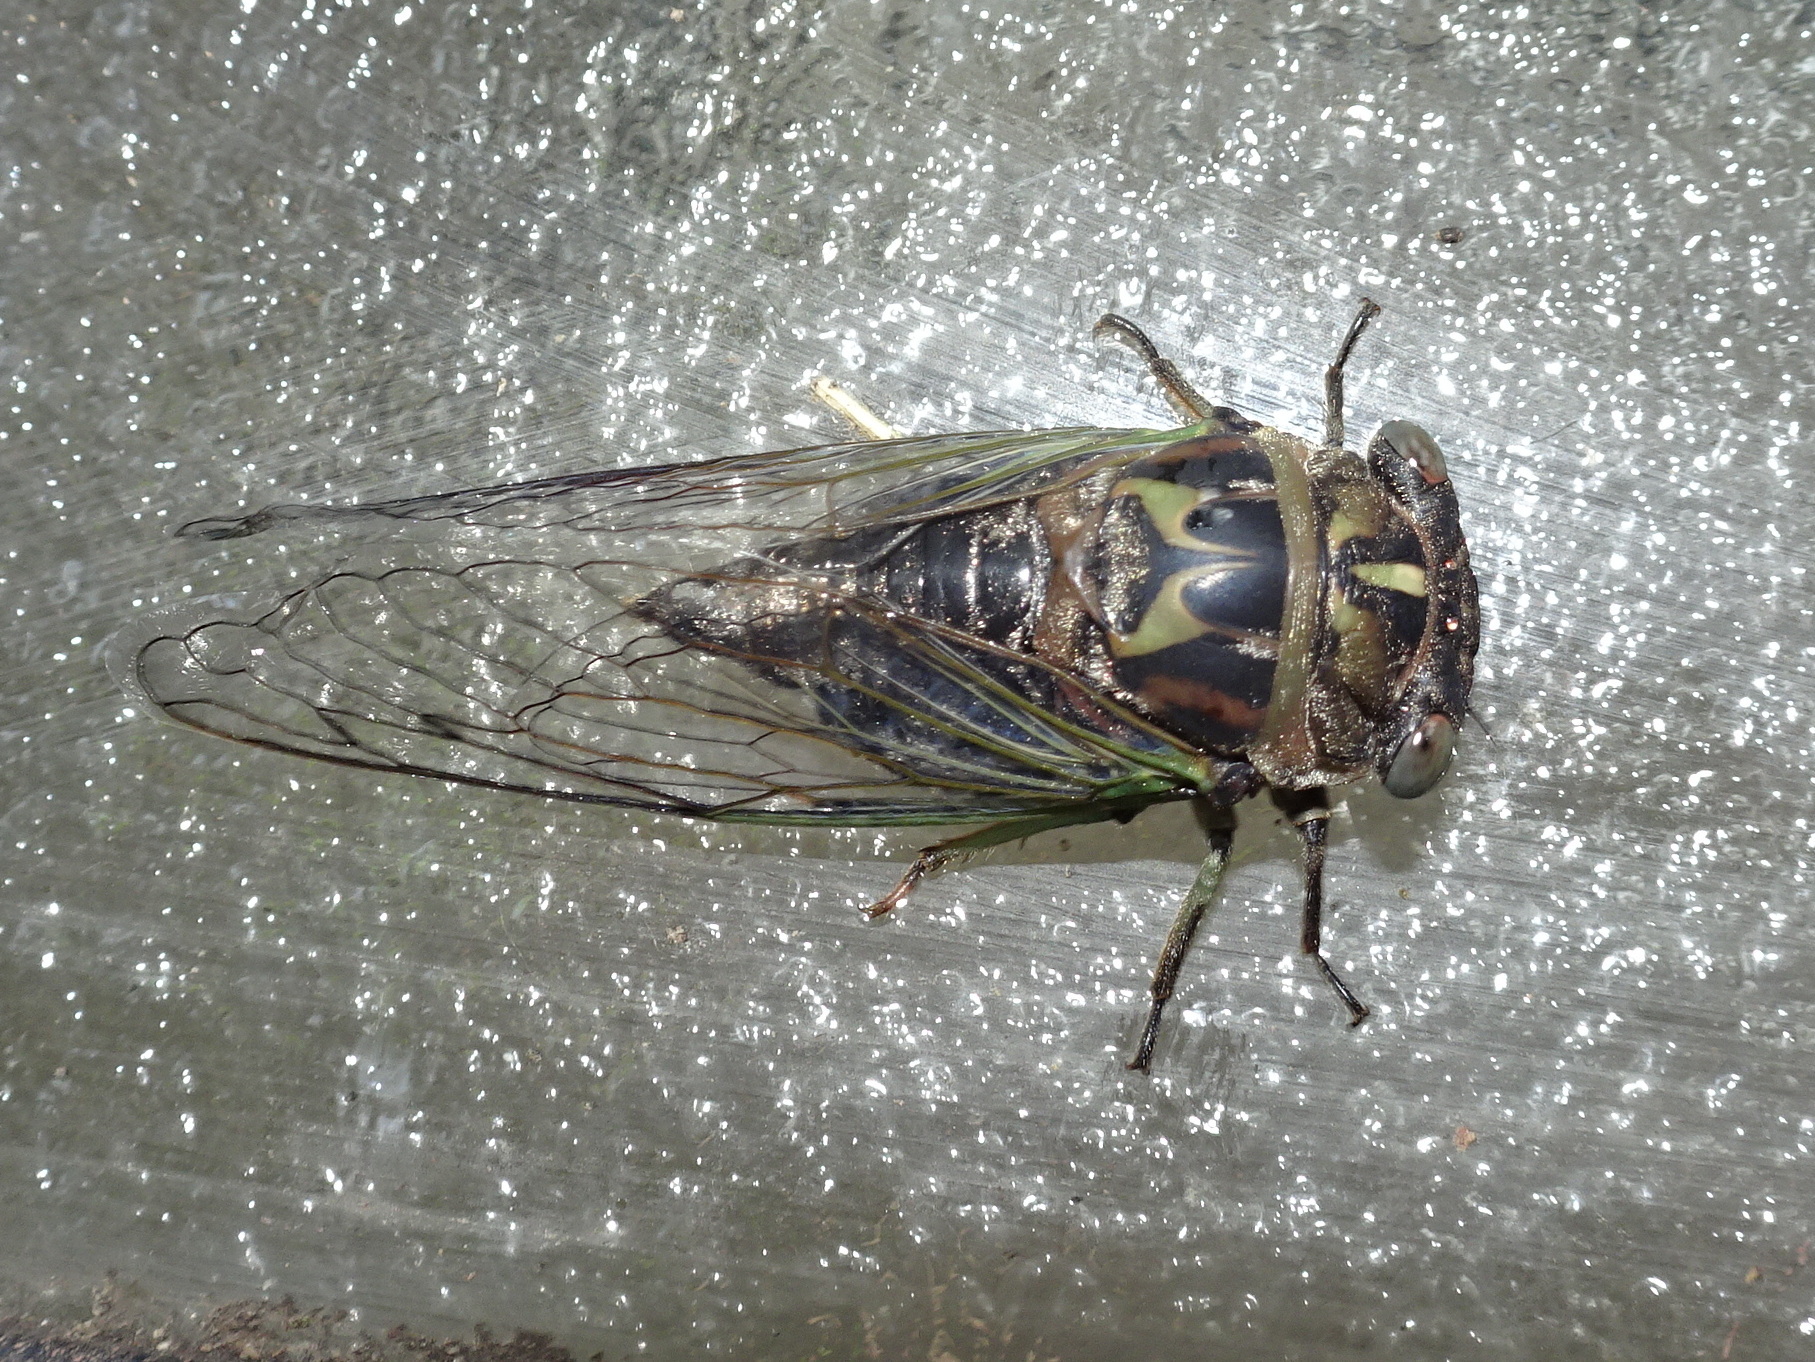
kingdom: Animalia
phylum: Arthropoda
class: Insecta
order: Hemiptera
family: Cicadidae
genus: Neotibicen
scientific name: Neotibicen canicularis
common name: God-day cicada
